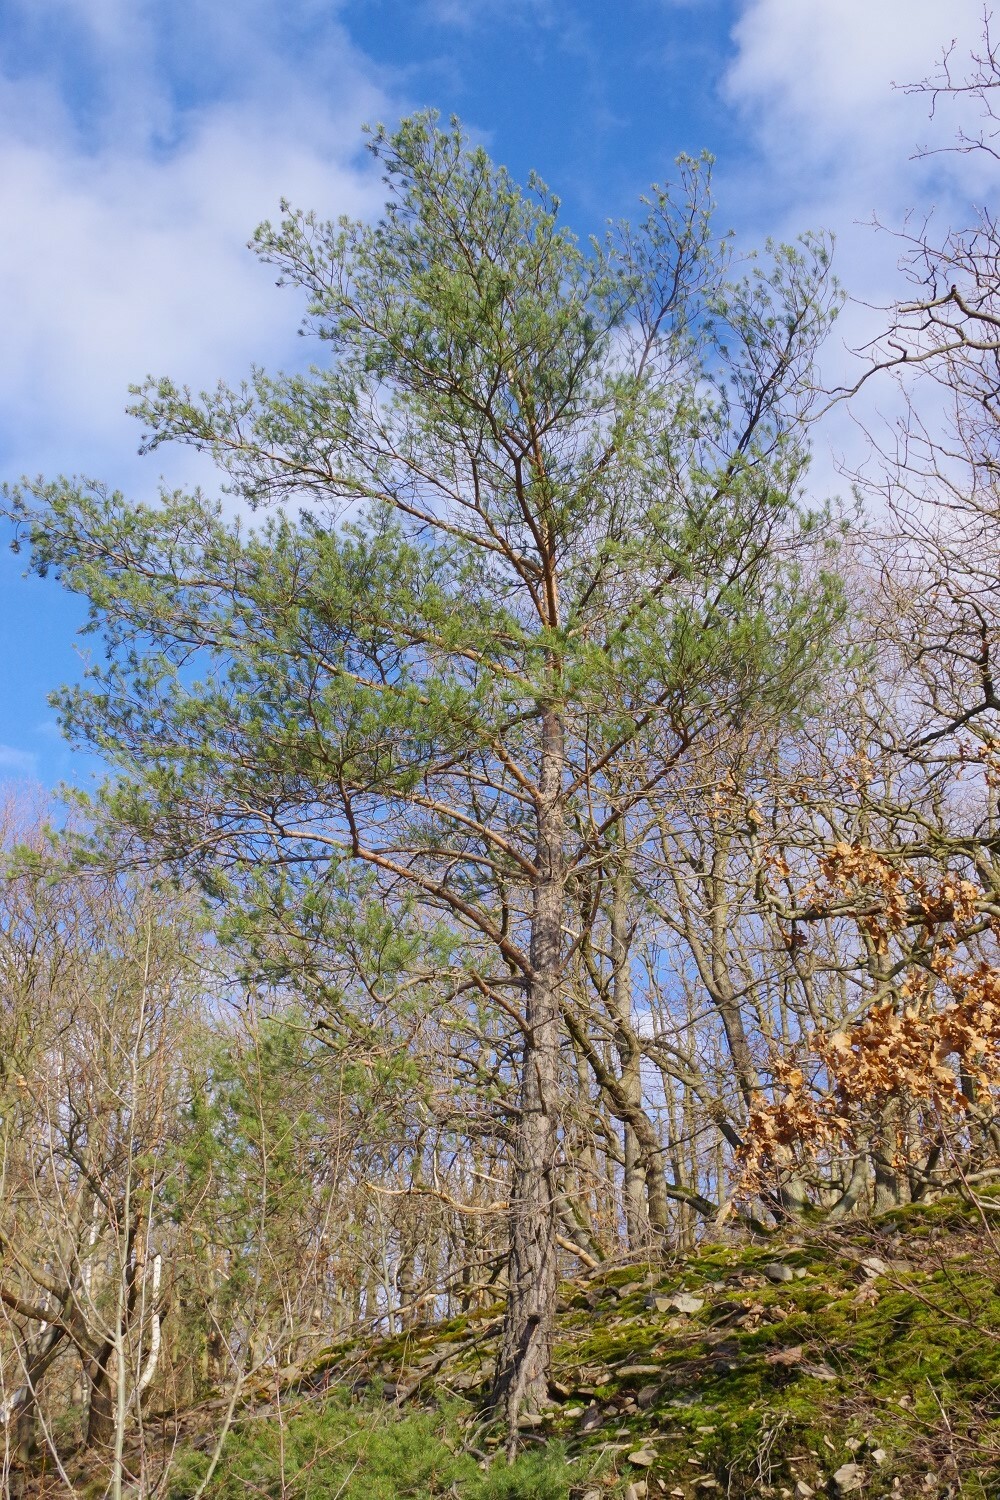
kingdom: Plantae
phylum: Tracheophyta
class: Pinopsida
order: Pinales
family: Pinaceae
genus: Pinus
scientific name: Pinus sylvestris
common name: Scots pine
